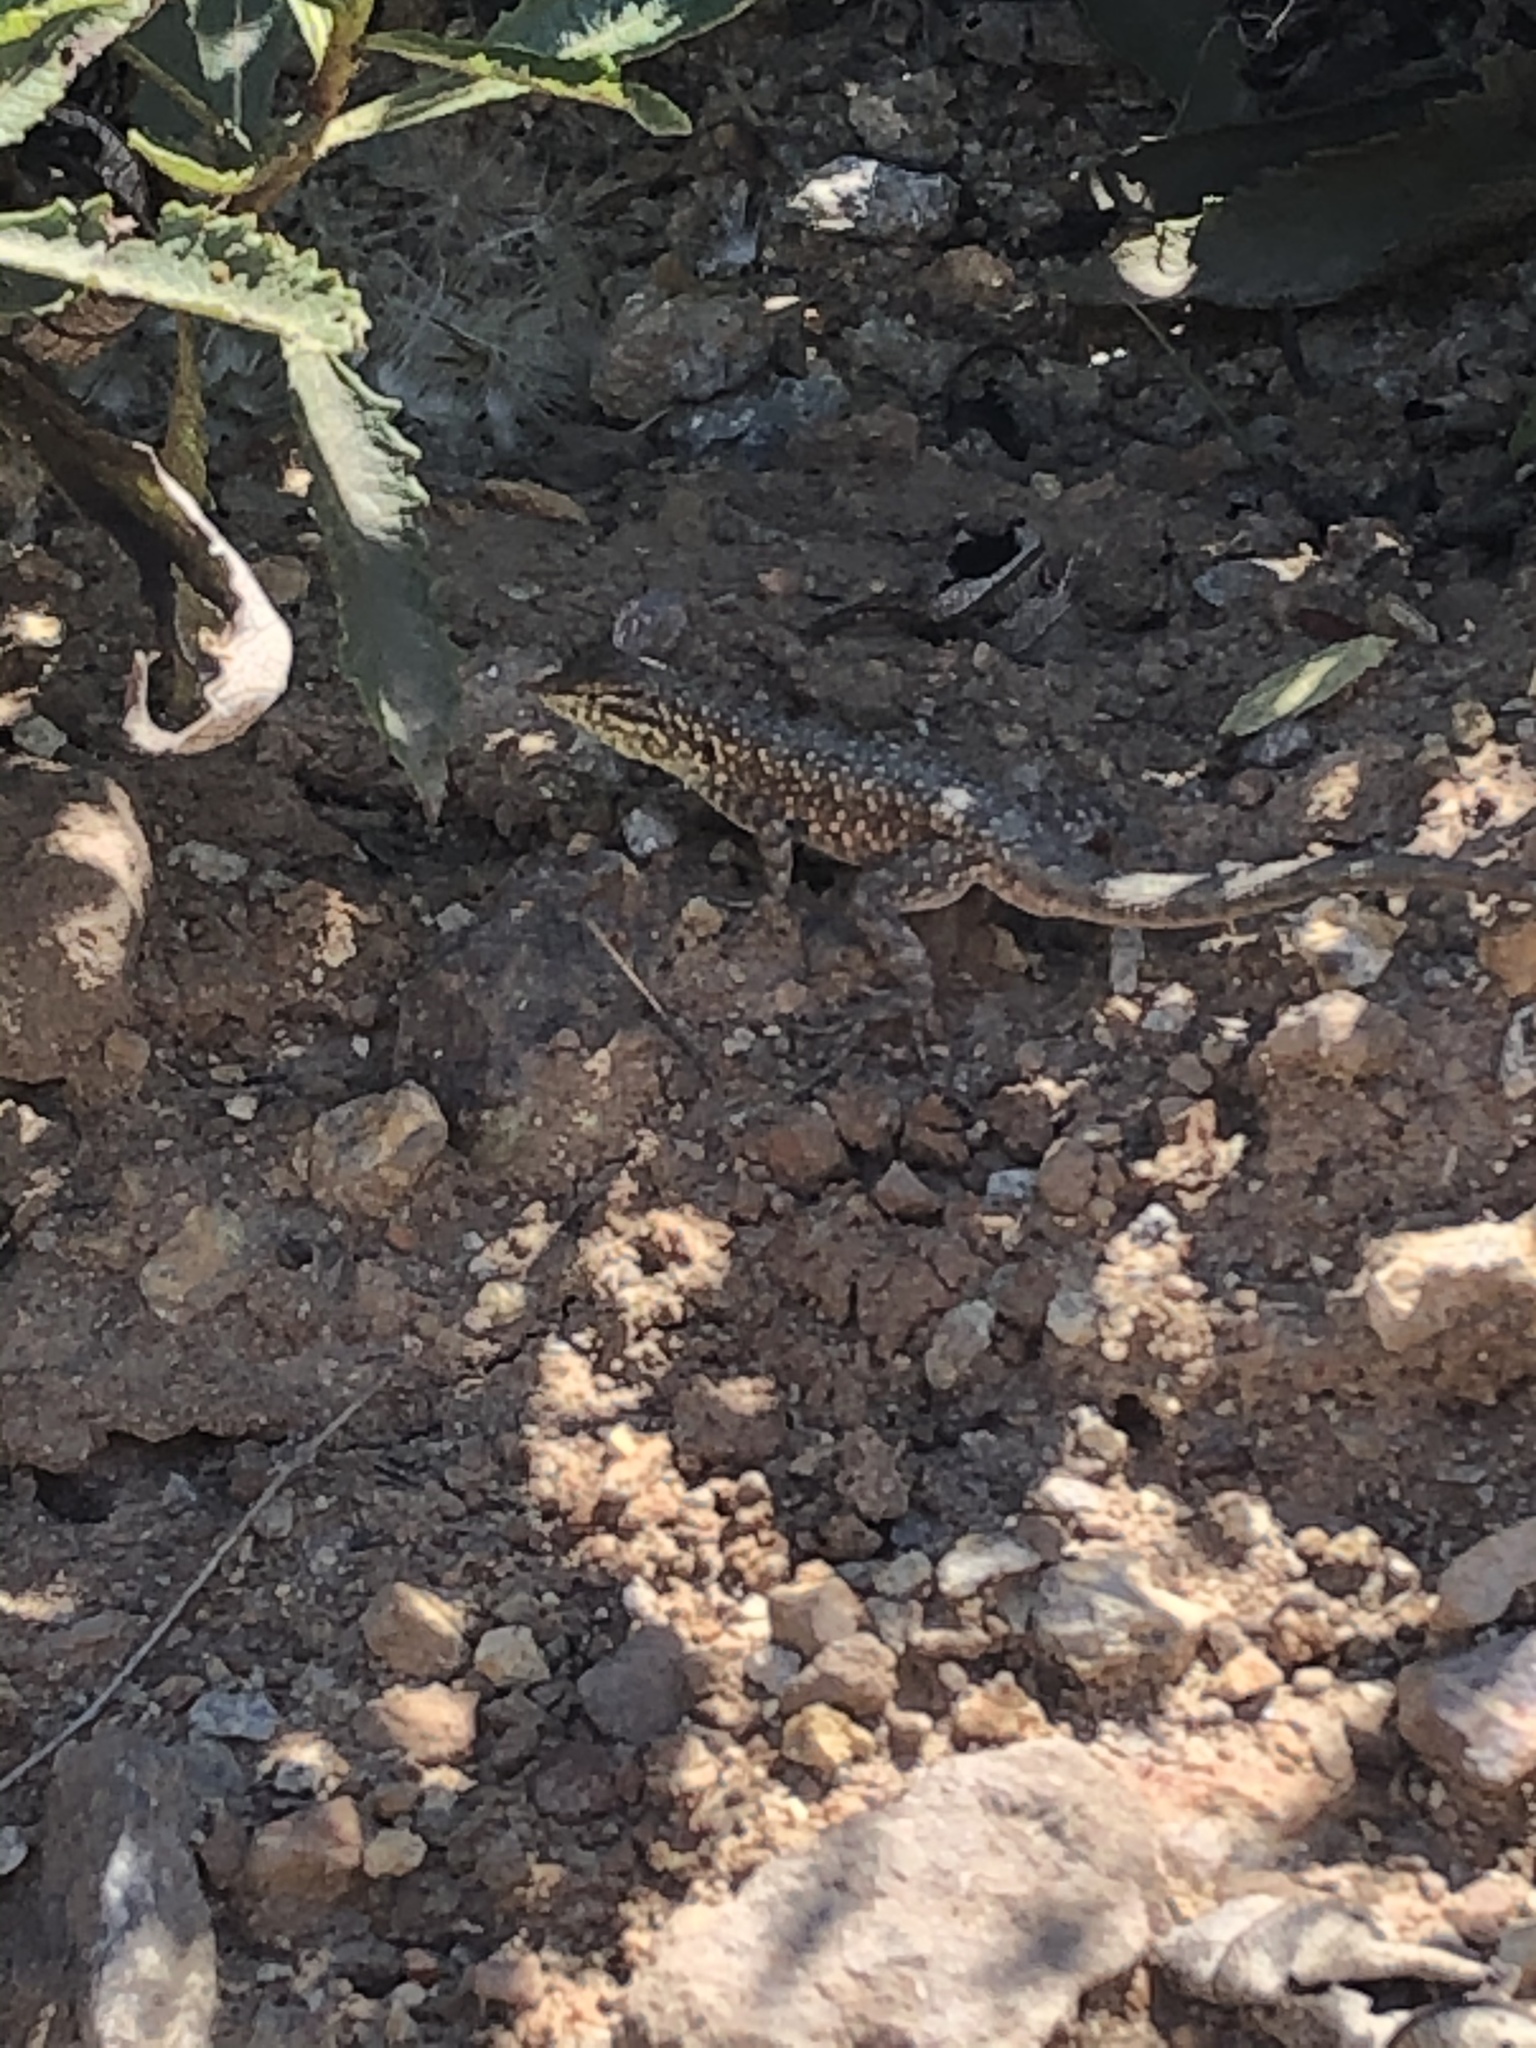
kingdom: Animalia
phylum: Chordata
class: Squamata
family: Phrynosomatidae
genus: Uta
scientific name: Uta stansburiana
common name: Side-blotched lizard
